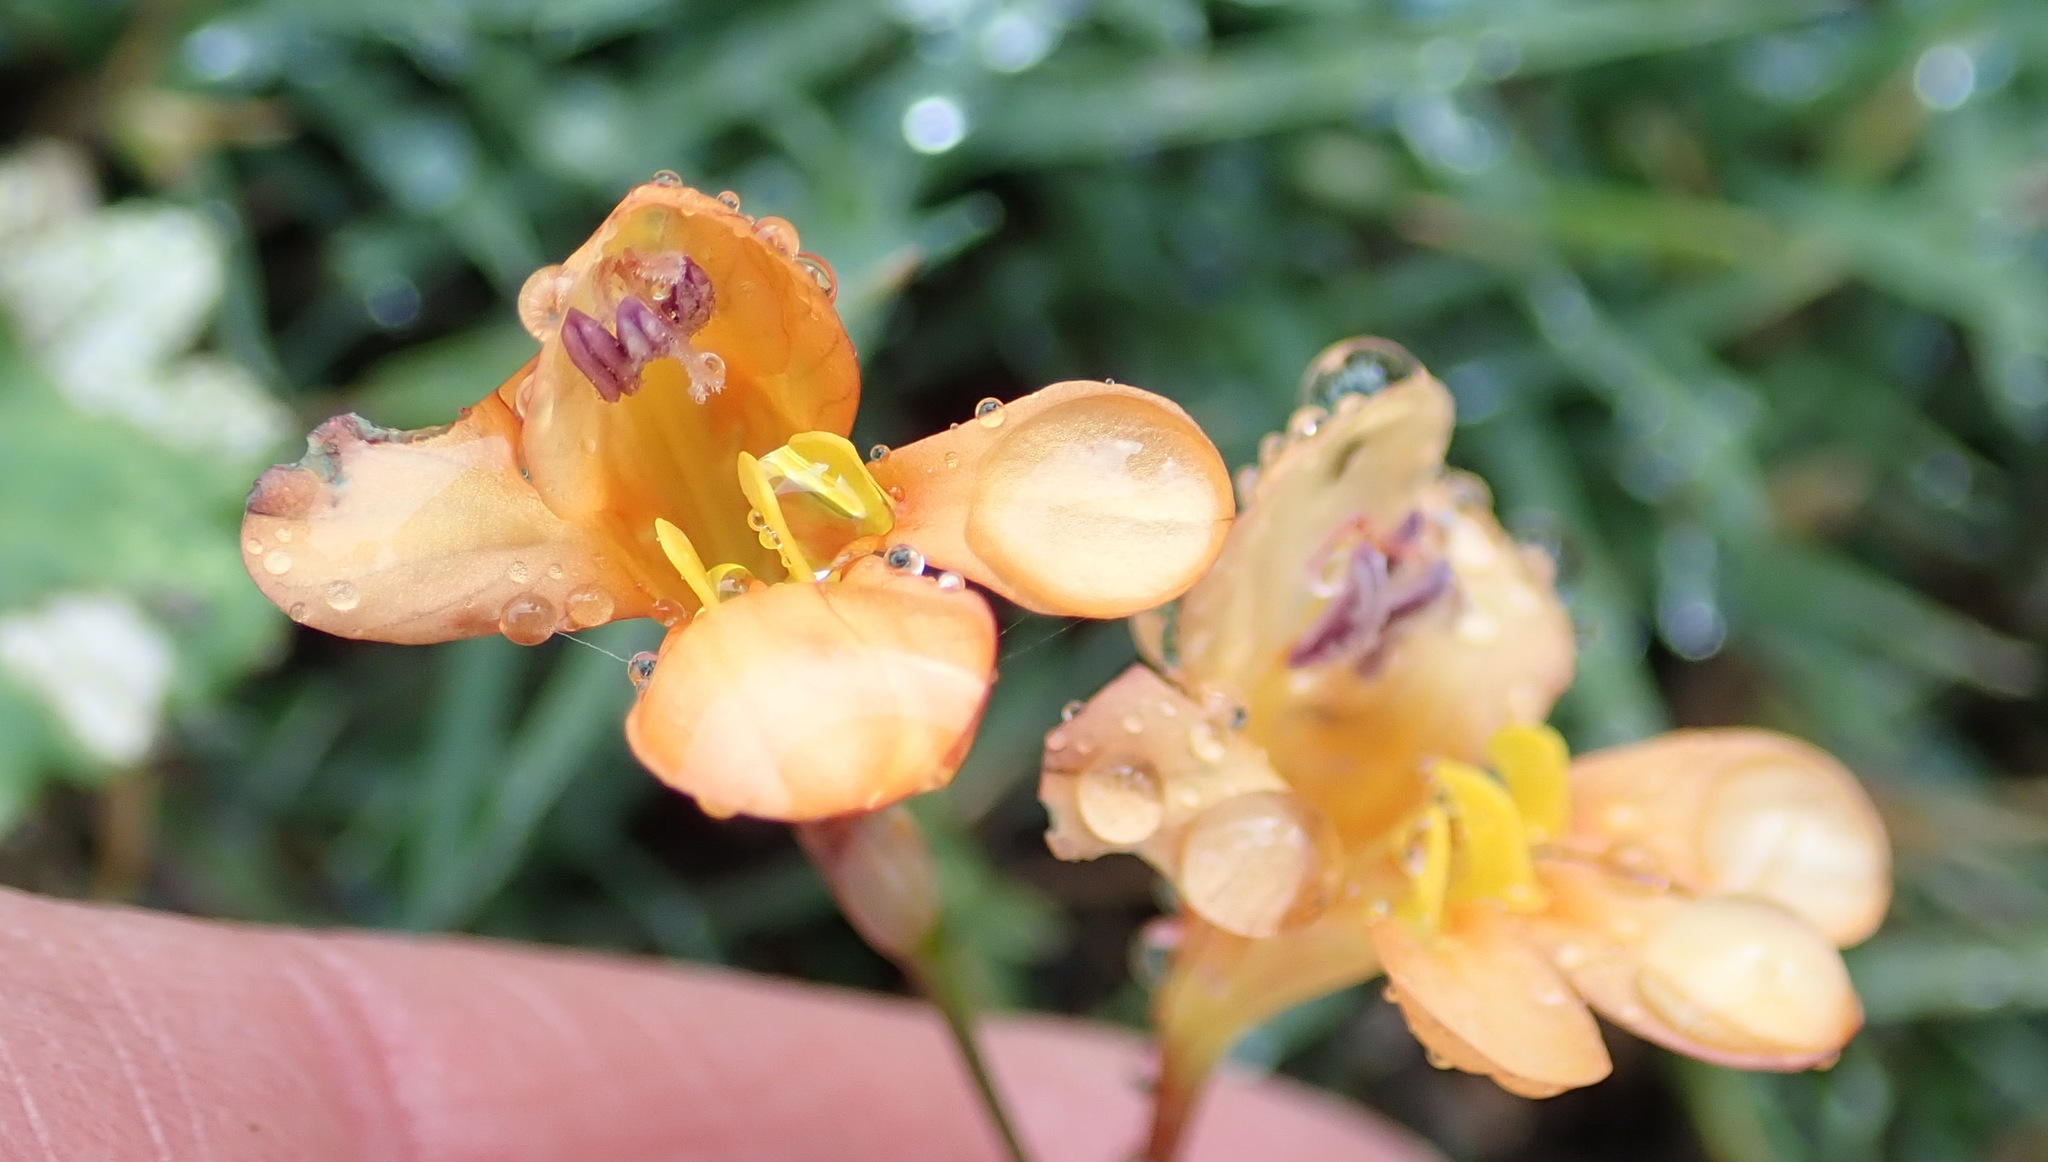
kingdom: Plantae
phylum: Tracheophyta
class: Liliopsida
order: Asparagales
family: Iridaceae
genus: Tritonia
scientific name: Tritonia securigera
